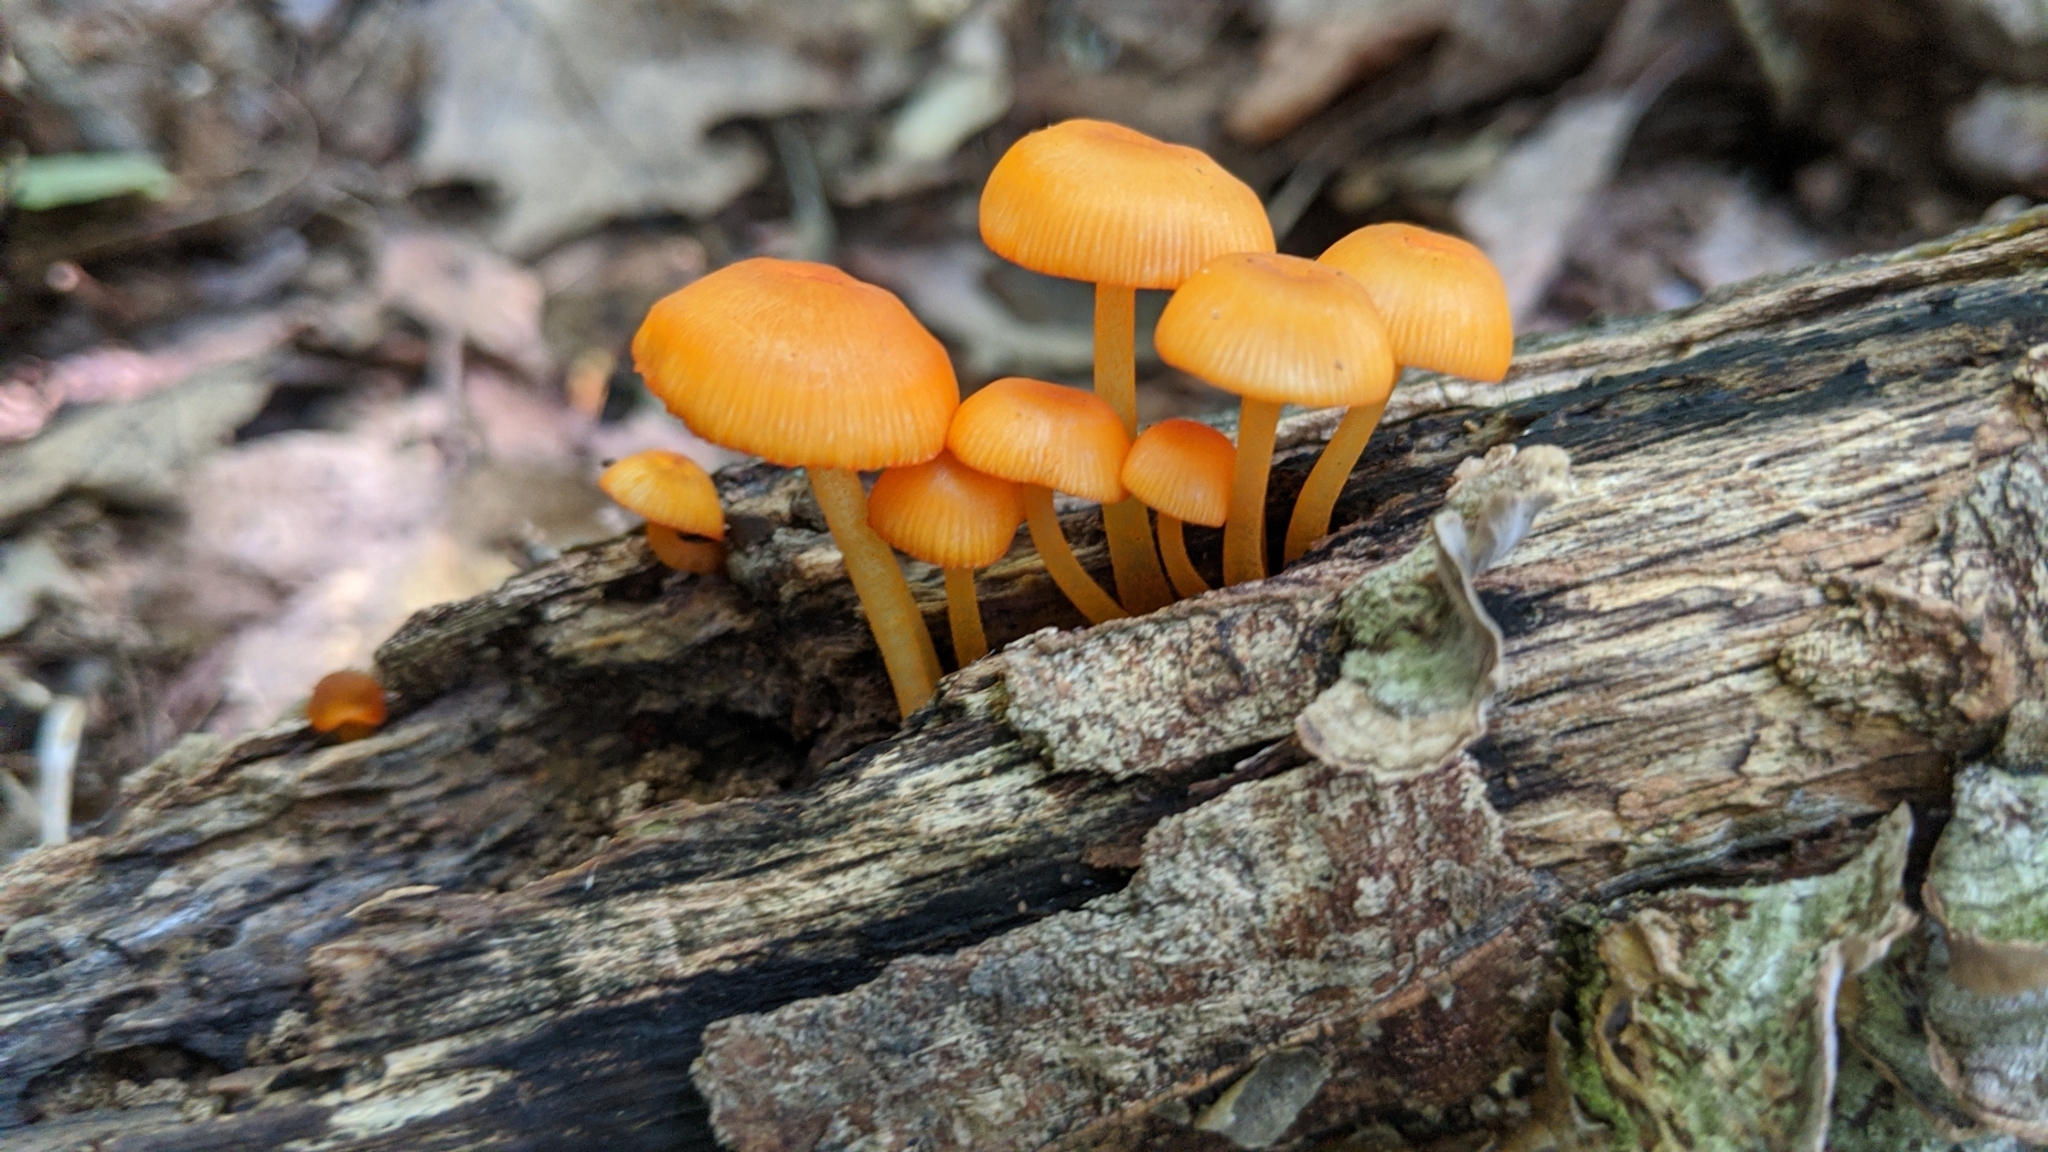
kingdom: Fungi
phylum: Basidiomycota
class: Agaricomycetes
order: Agaricales
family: Mycenaceae
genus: Mycena
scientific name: Mycena leaiana
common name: Orange mycena
